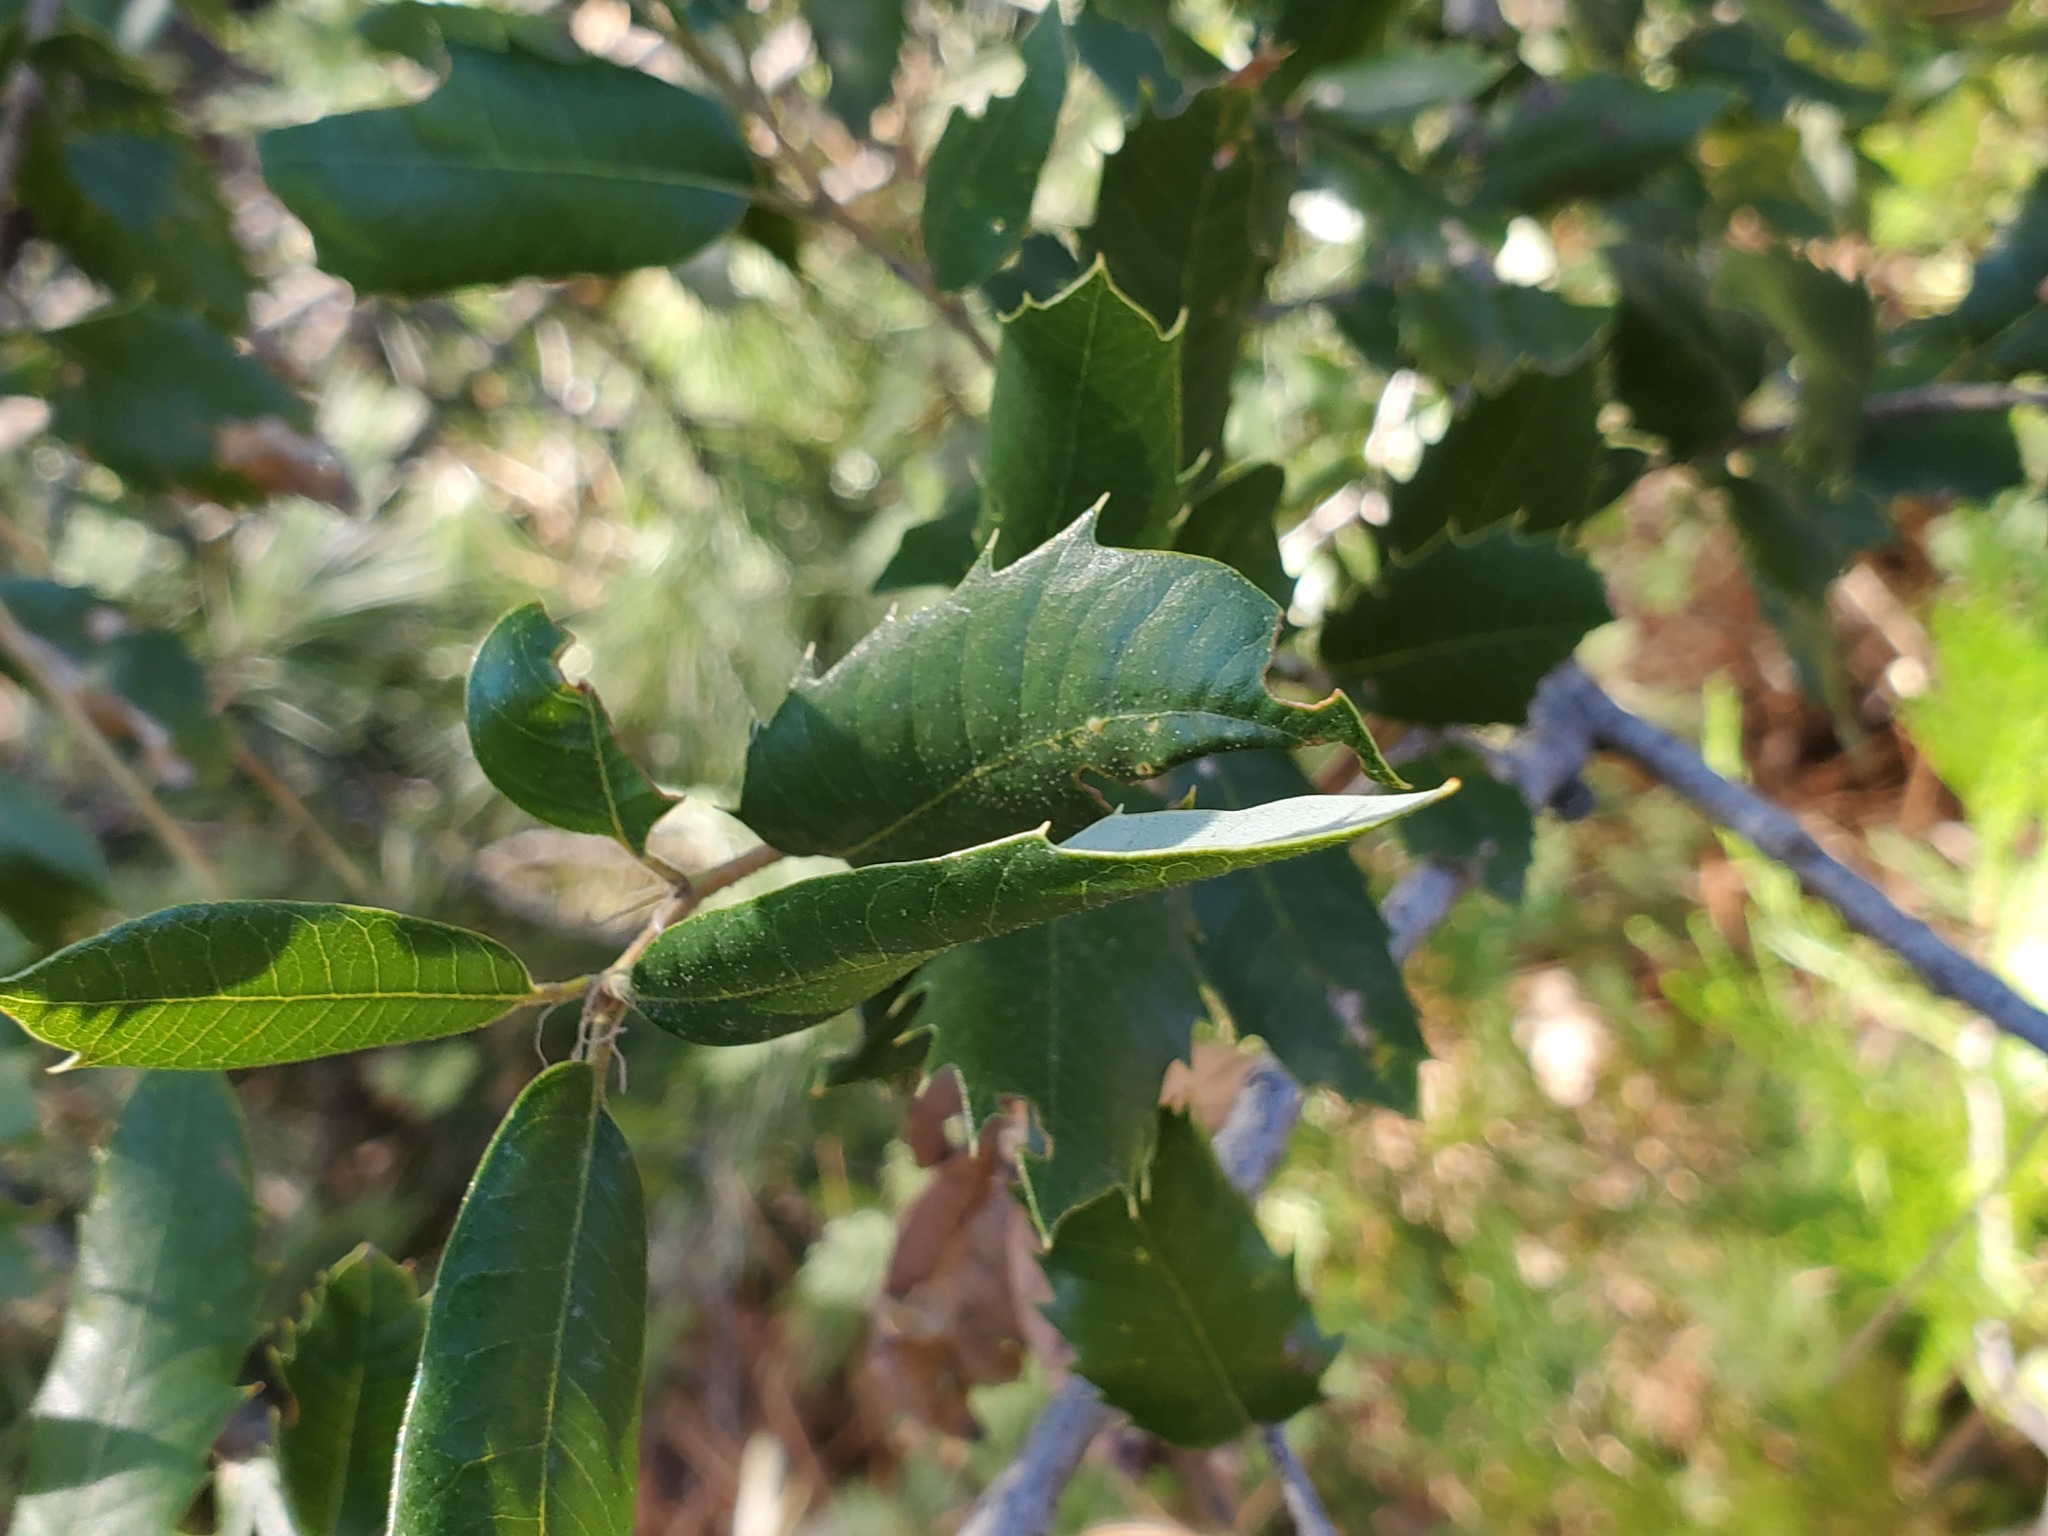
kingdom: Plantae
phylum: Tracheophyta
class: Magnoliopsida
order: Fagales
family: Fagaceae
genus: Quercus
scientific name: Quercus chrysolepis
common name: Canyon live oak
